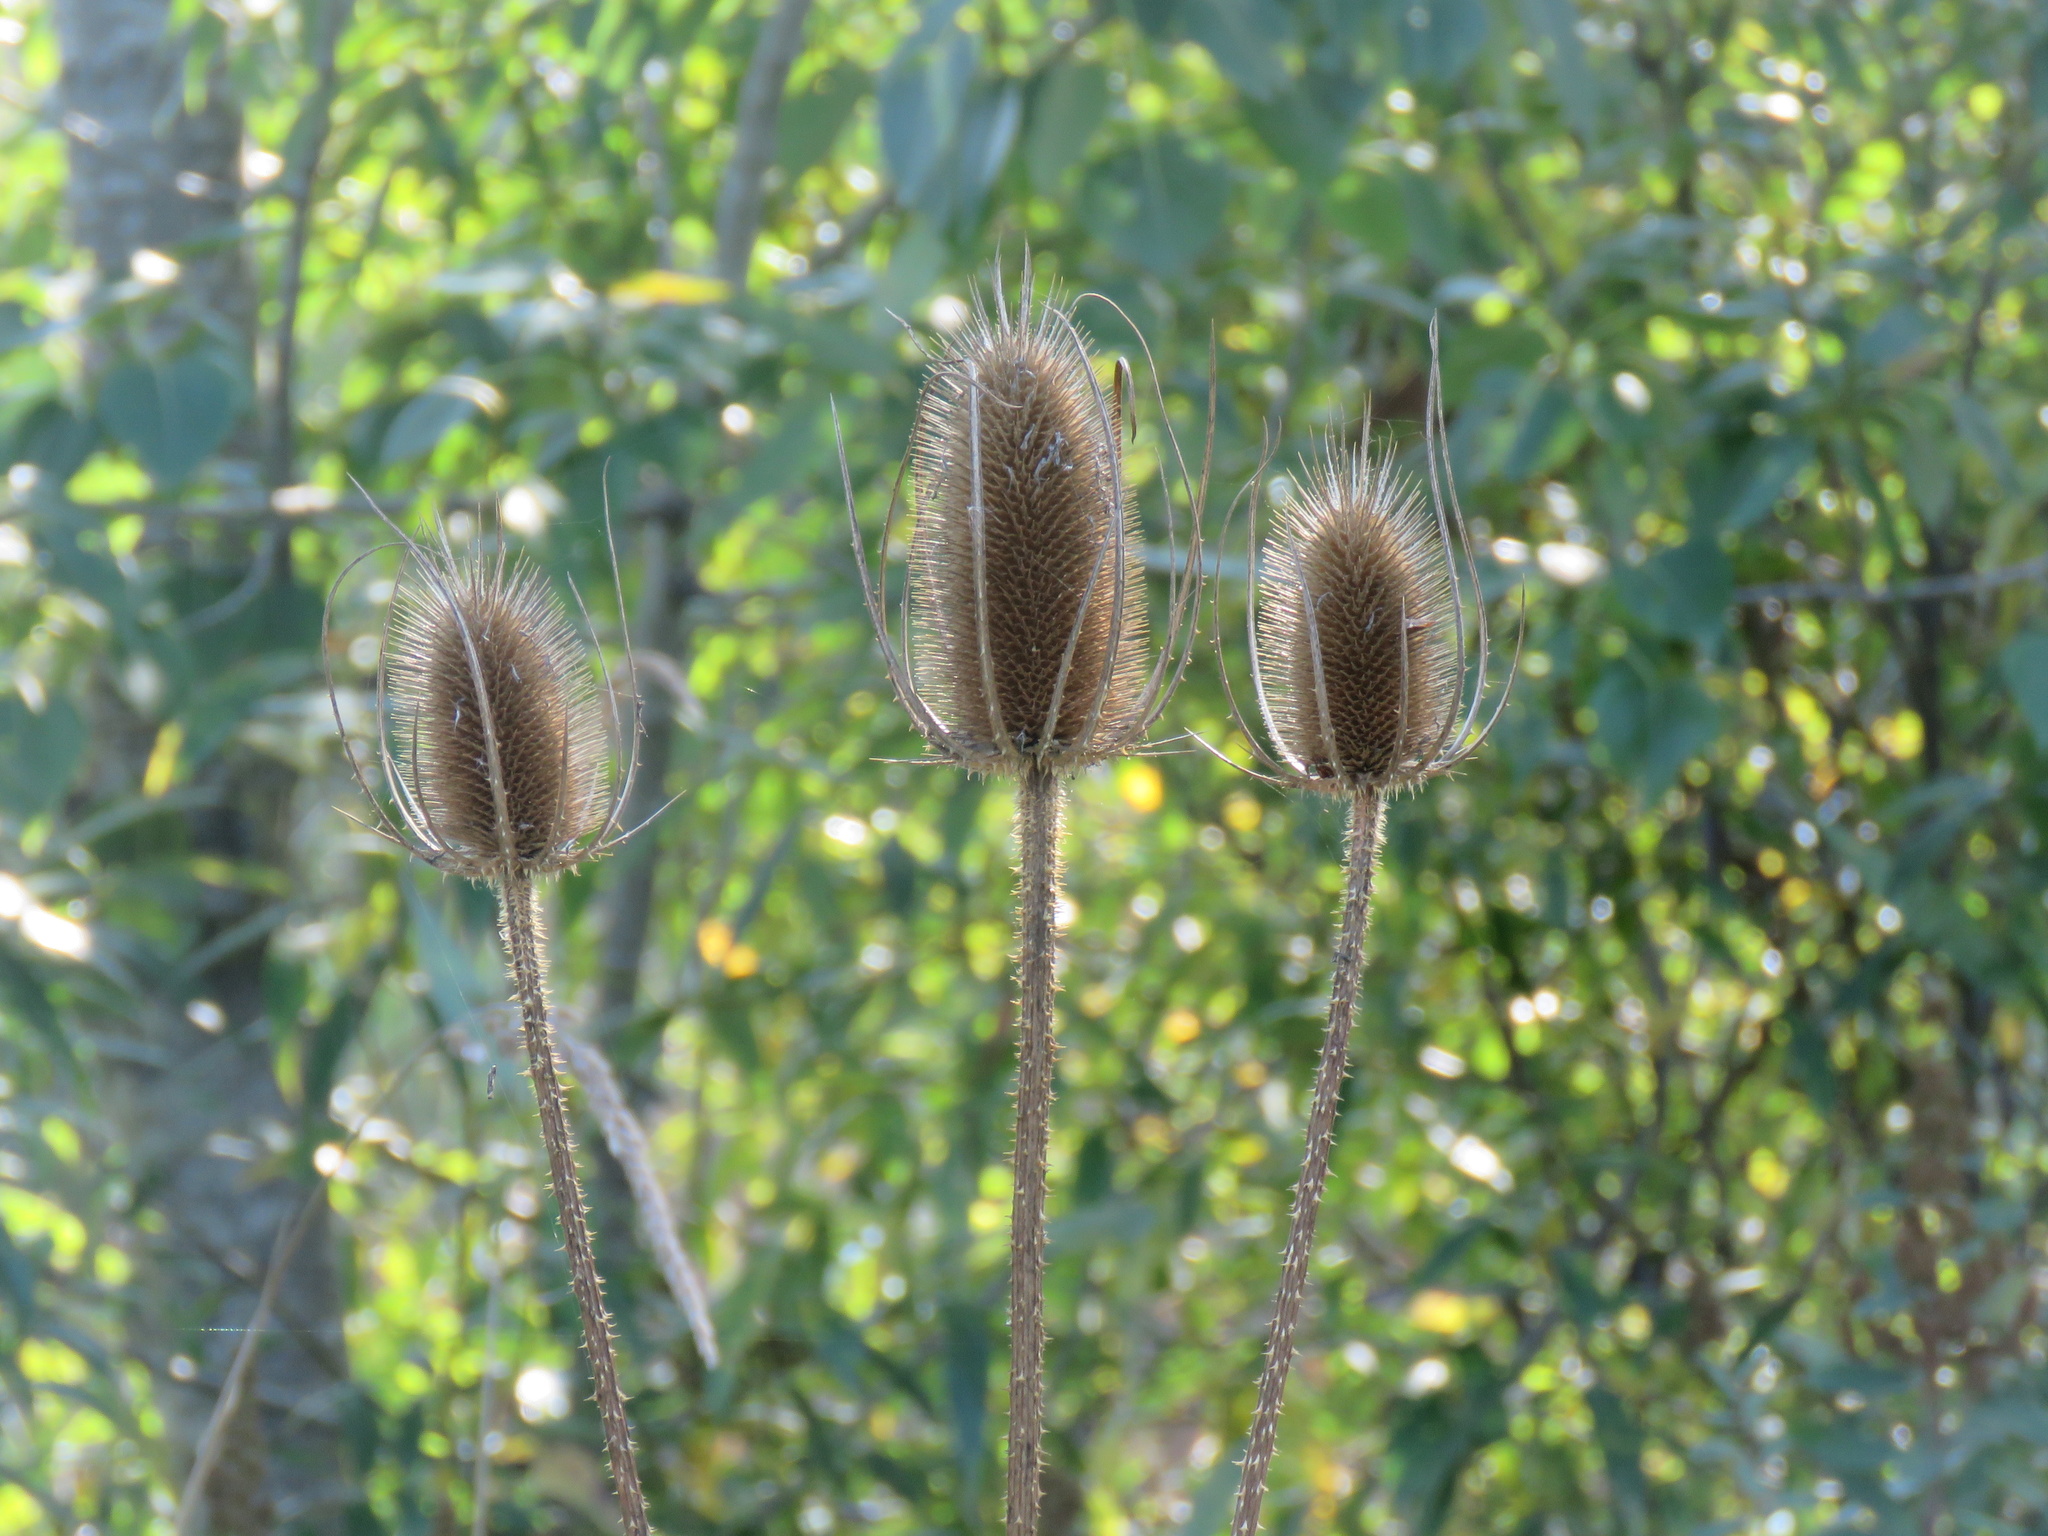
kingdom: Plantae
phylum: Tracheophyta
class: Magnoliopsida
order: Dipsacales
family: Caprifoliaceae
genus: Dipsacus
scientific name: Dipsacus fullonum
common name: Teasel
